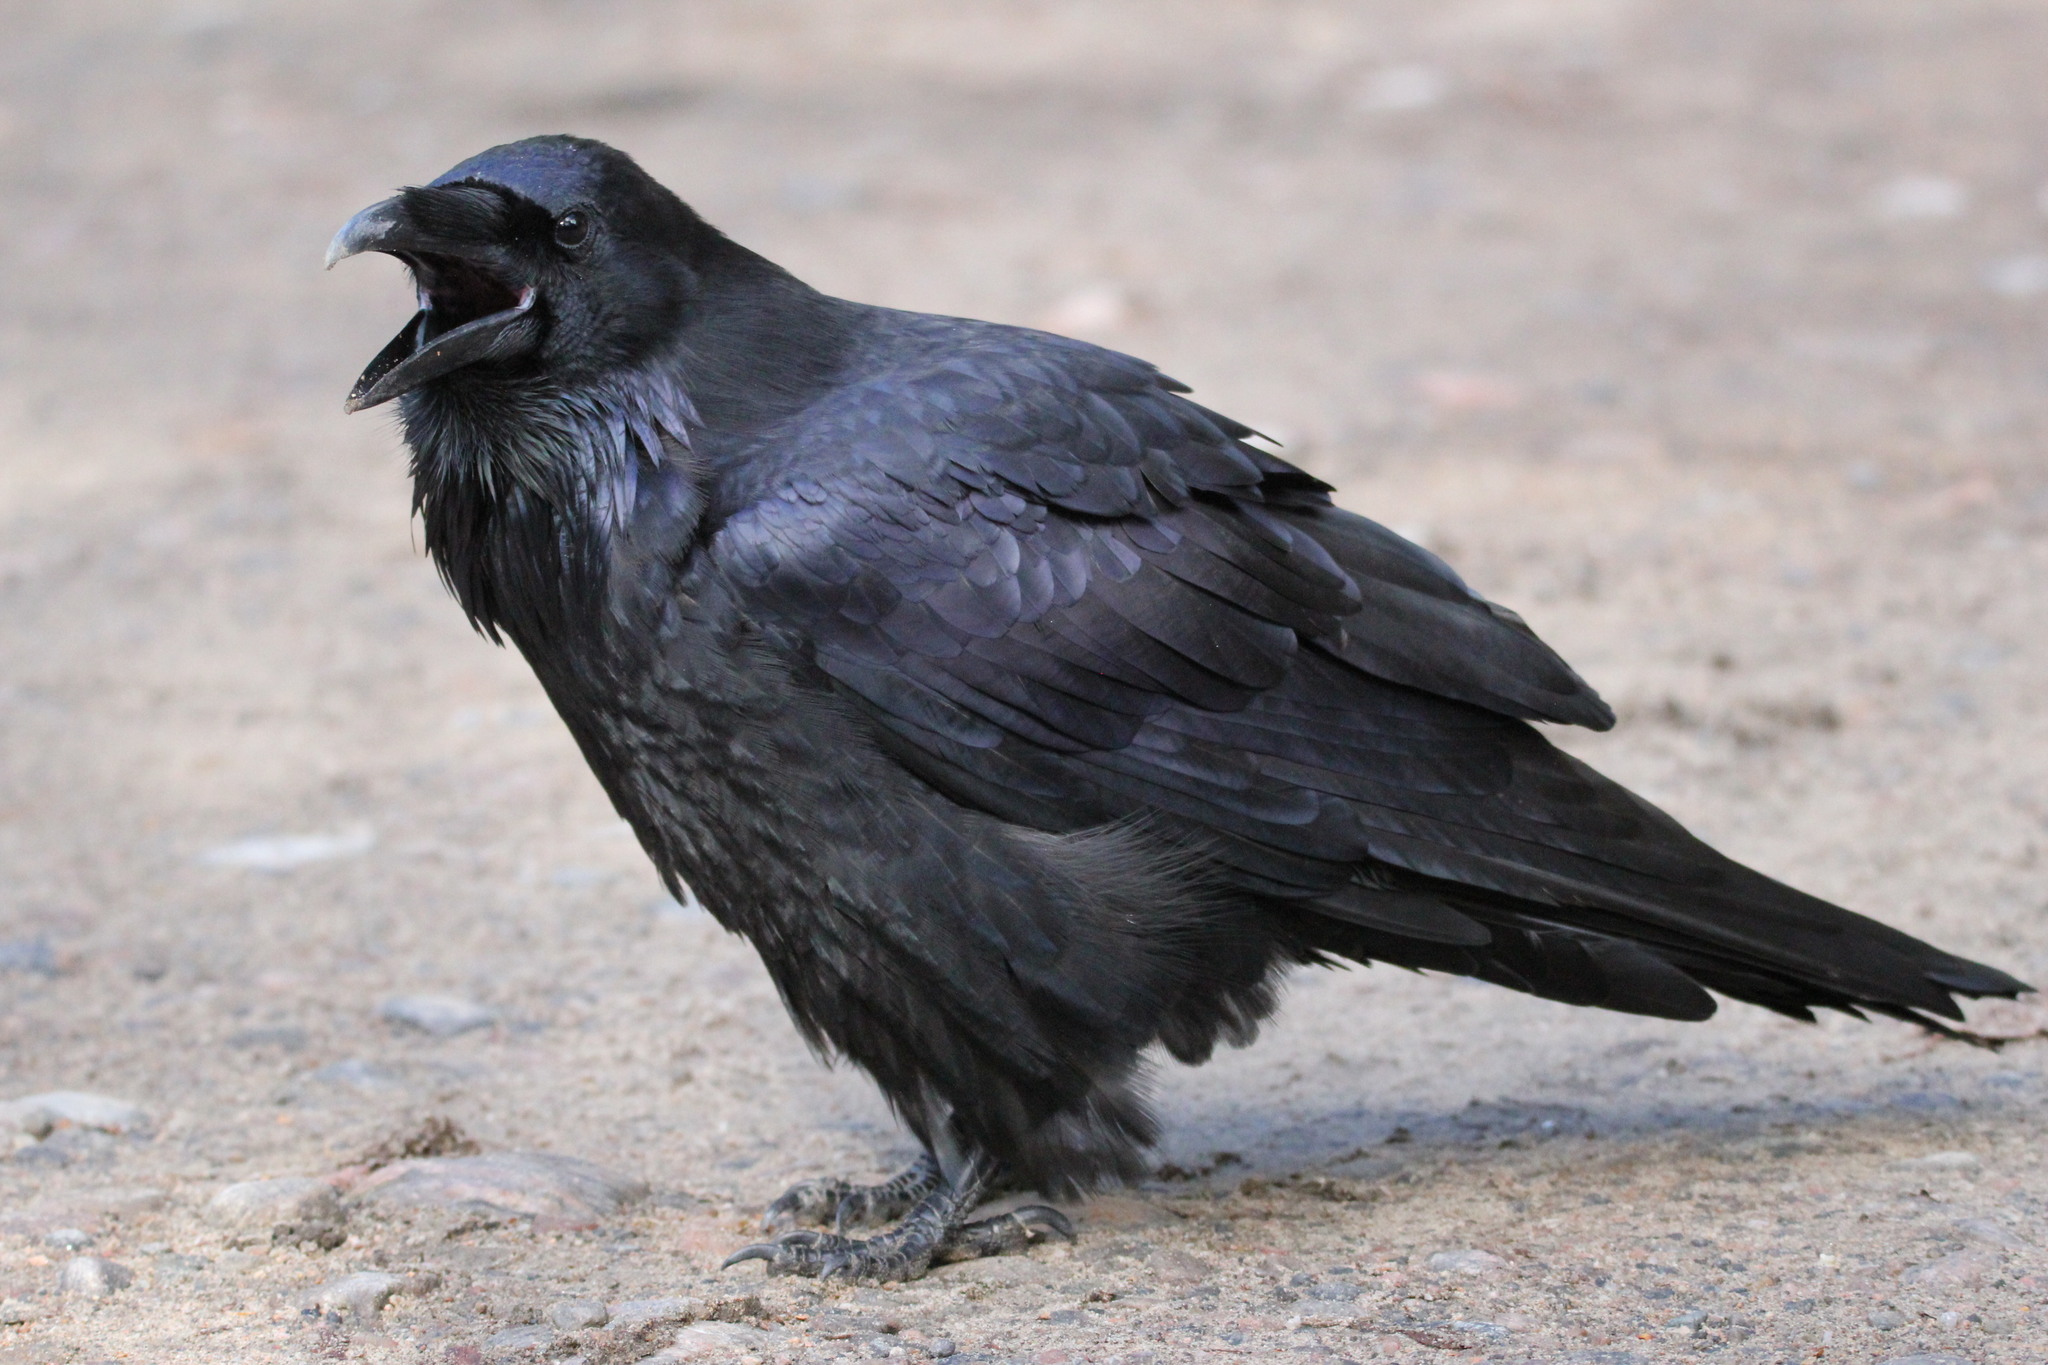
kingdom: Animalia
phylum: Chordata
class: Aves
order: Passeriformes
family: Corvidae
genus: Corvus
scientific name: Corvus corax
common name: Common raven
